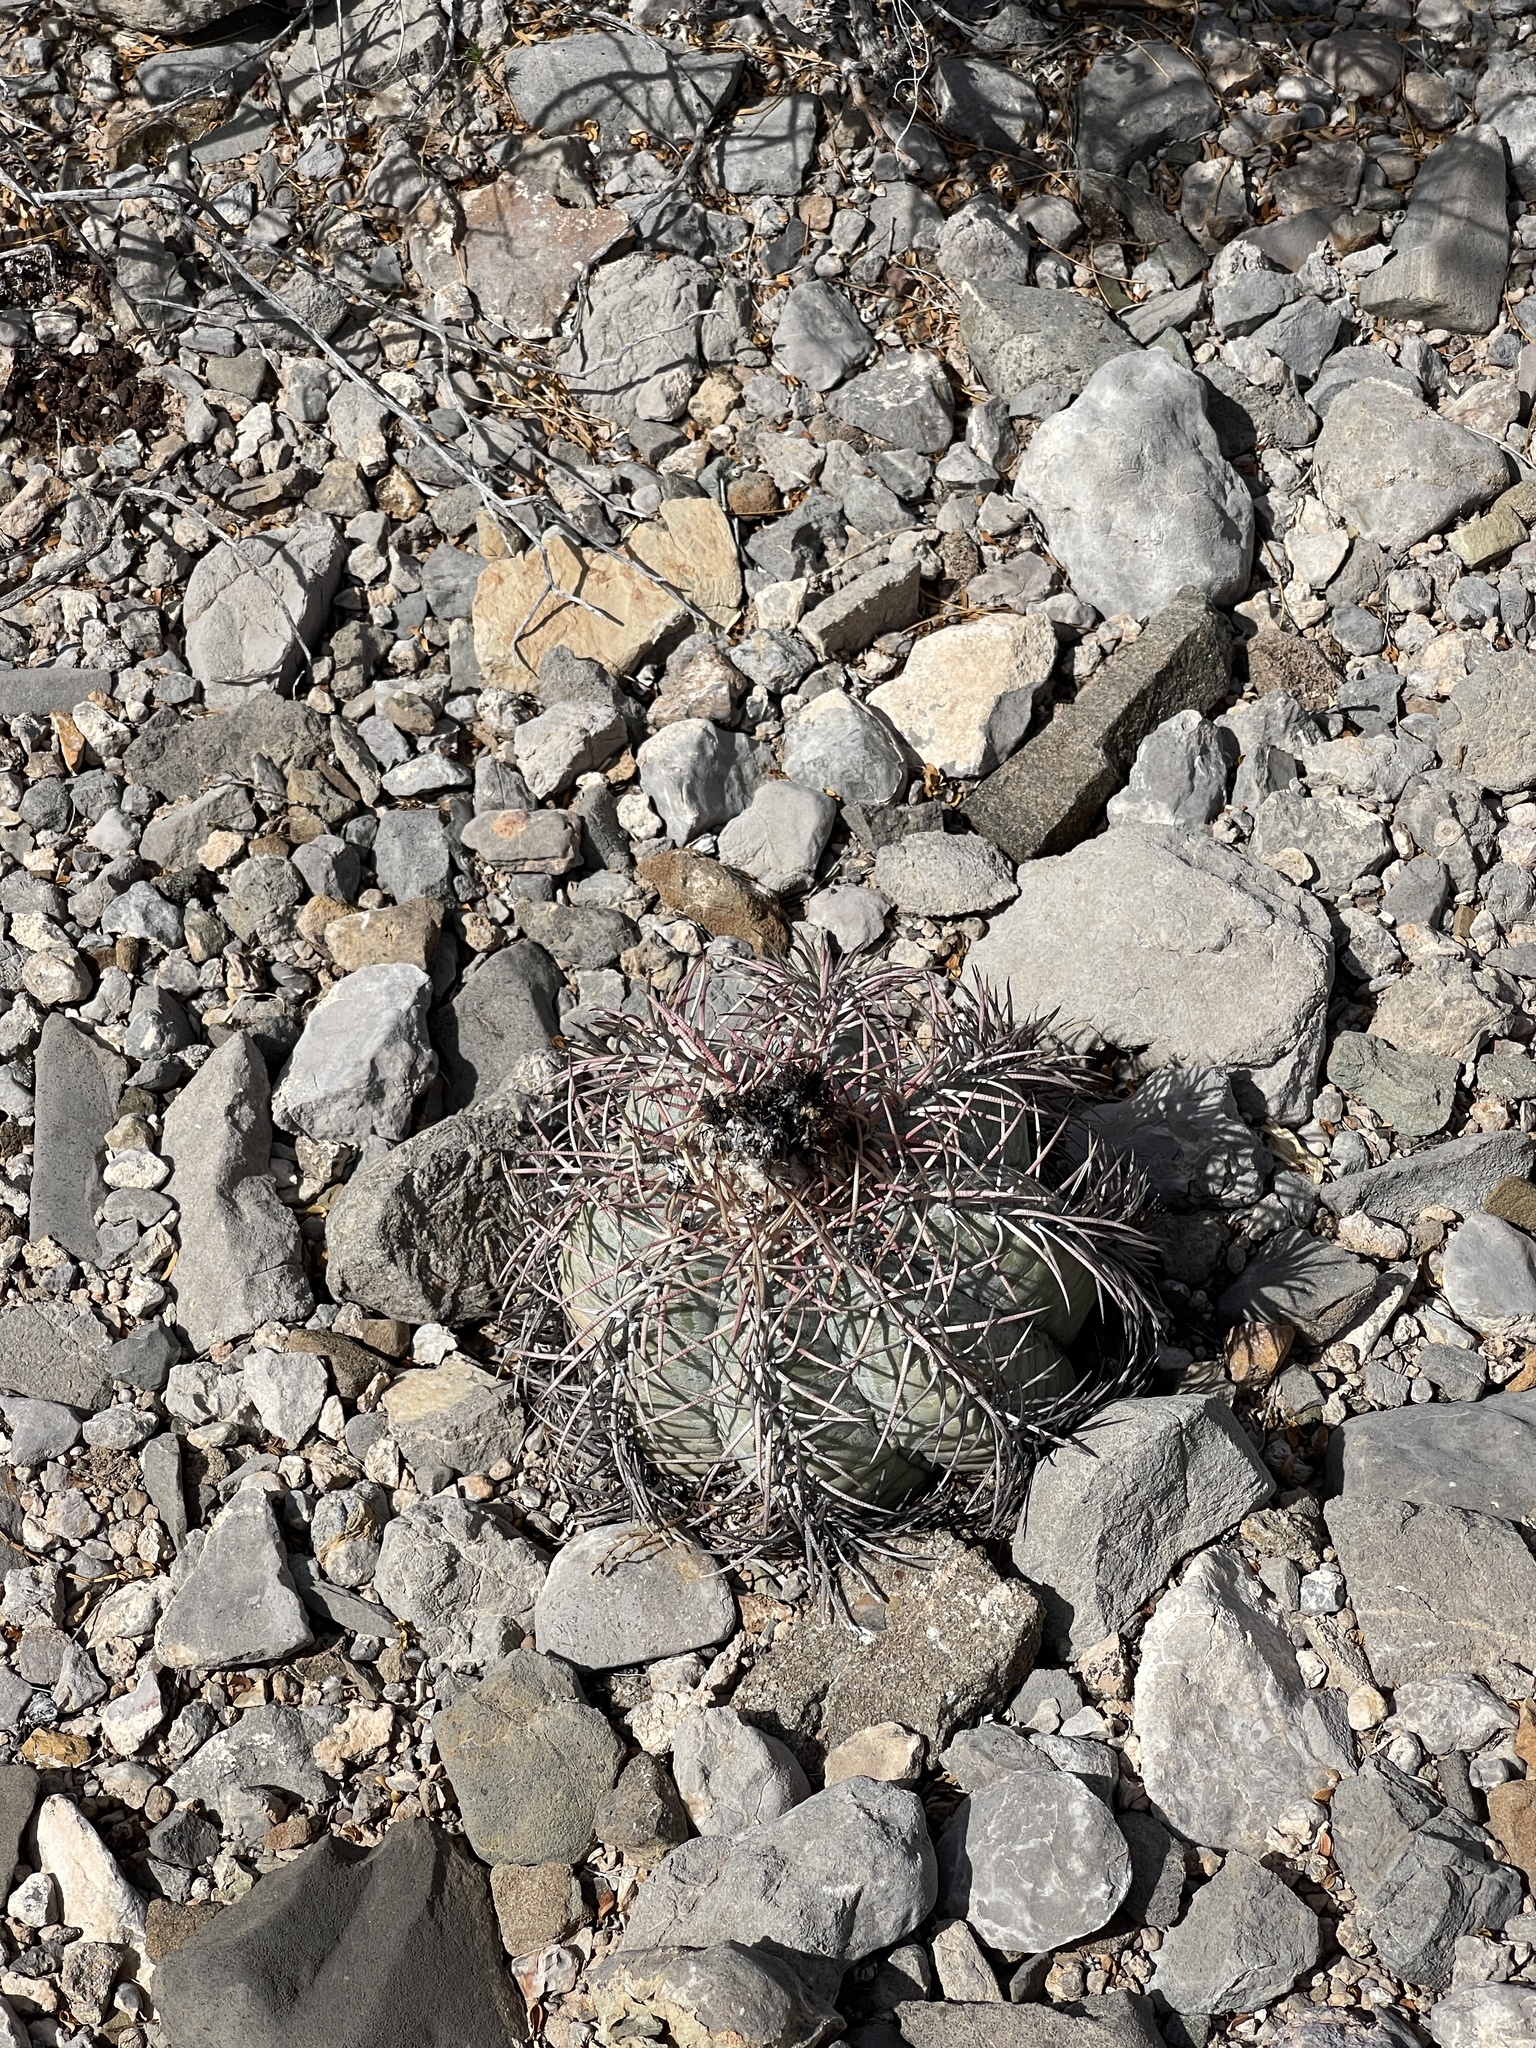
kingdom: Plantae
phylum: Tracheophyta
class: Magnoliopsida
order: Caryophyllales
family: Cactaceae
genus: Echinocactus
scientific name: Echinocactus horizonthalonius
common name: Devilshead
